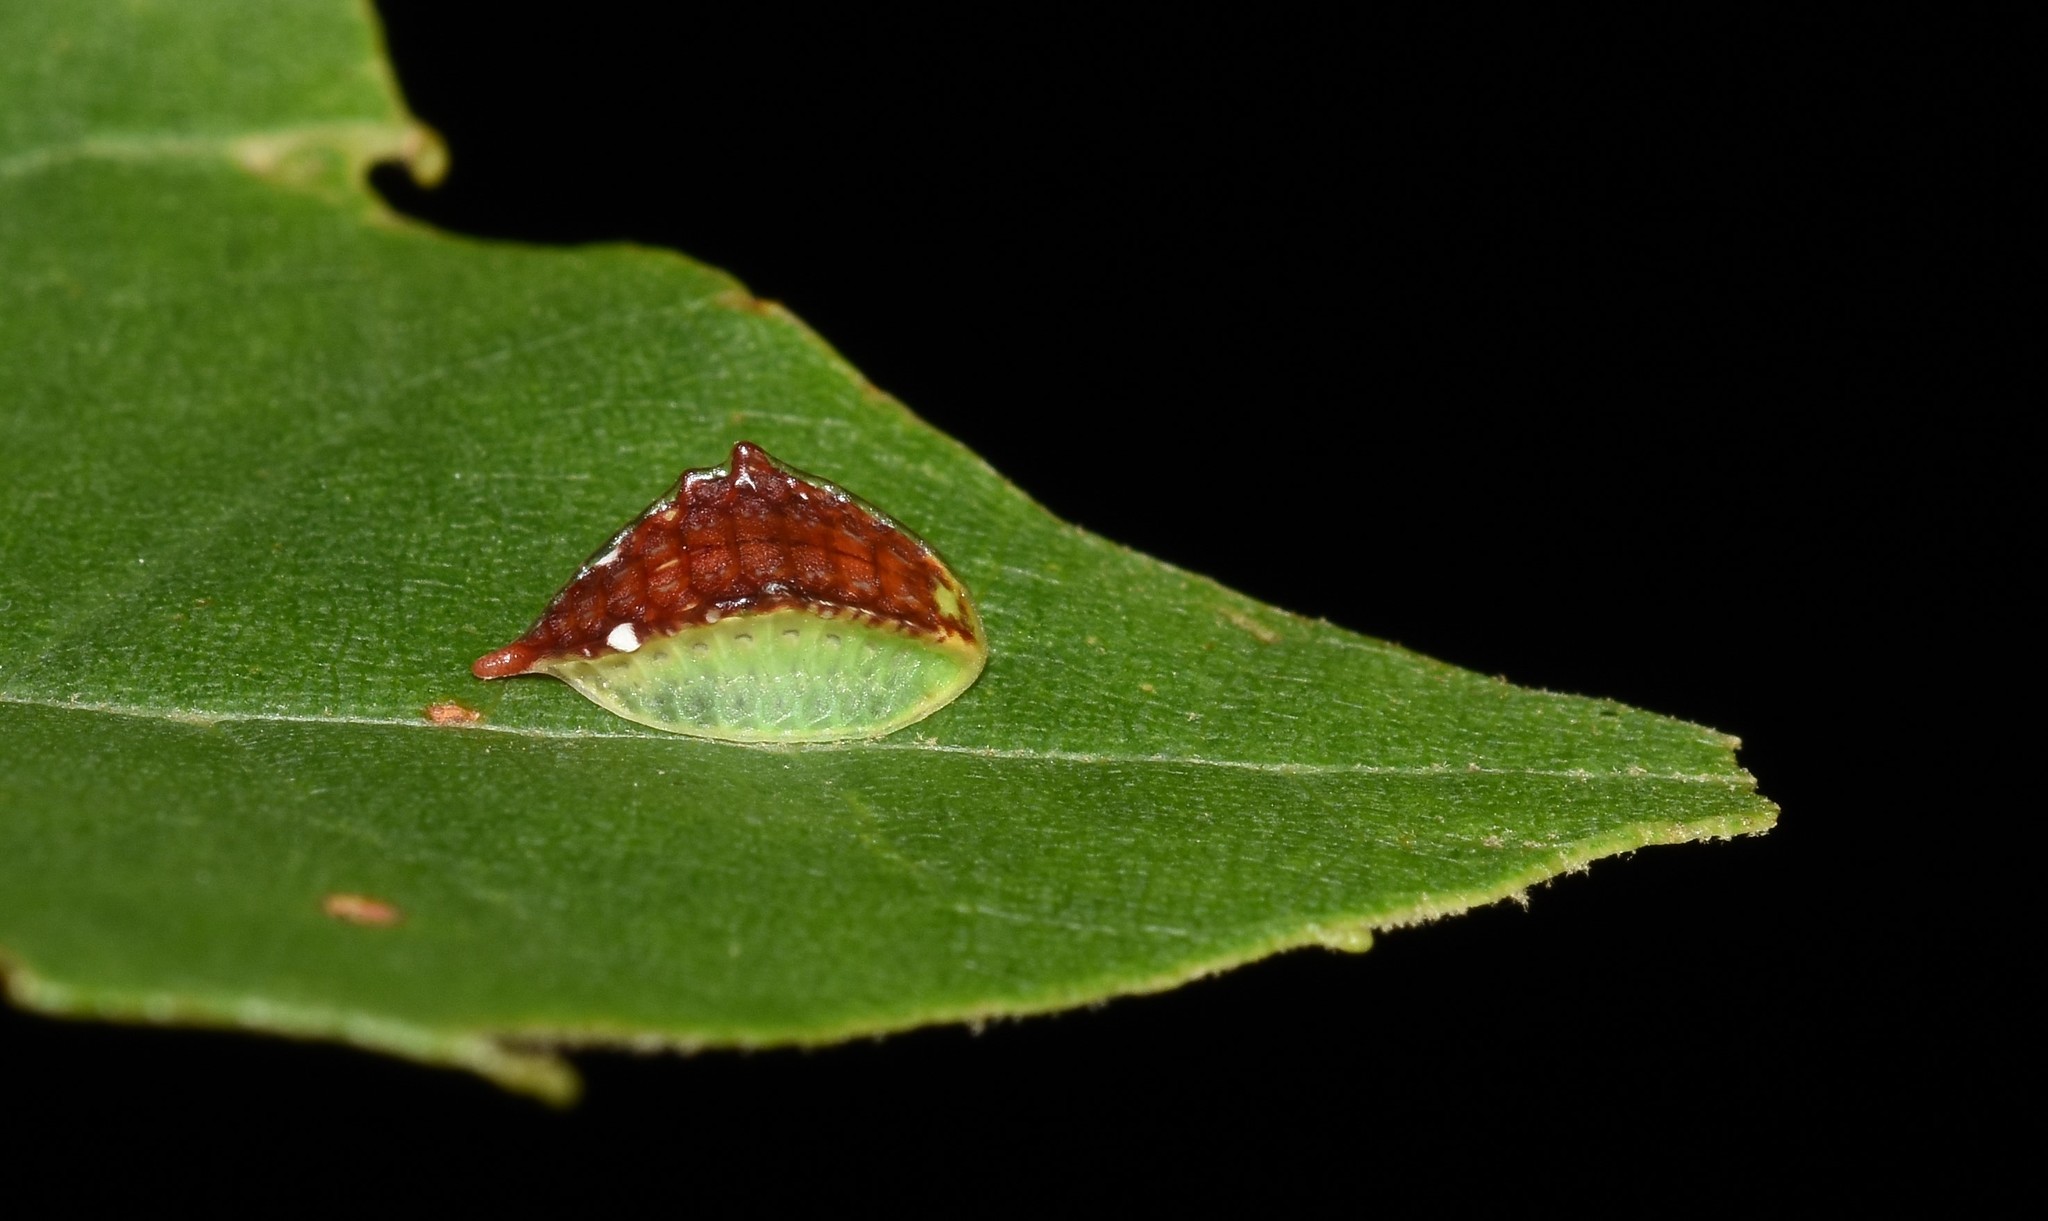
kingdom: Animalia
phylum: Arthropoda
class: Insecta
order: Lepidoptera
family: Limacodidae
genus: Prolimacodes
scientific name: Prolimacodes badia
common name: Skiff moth
